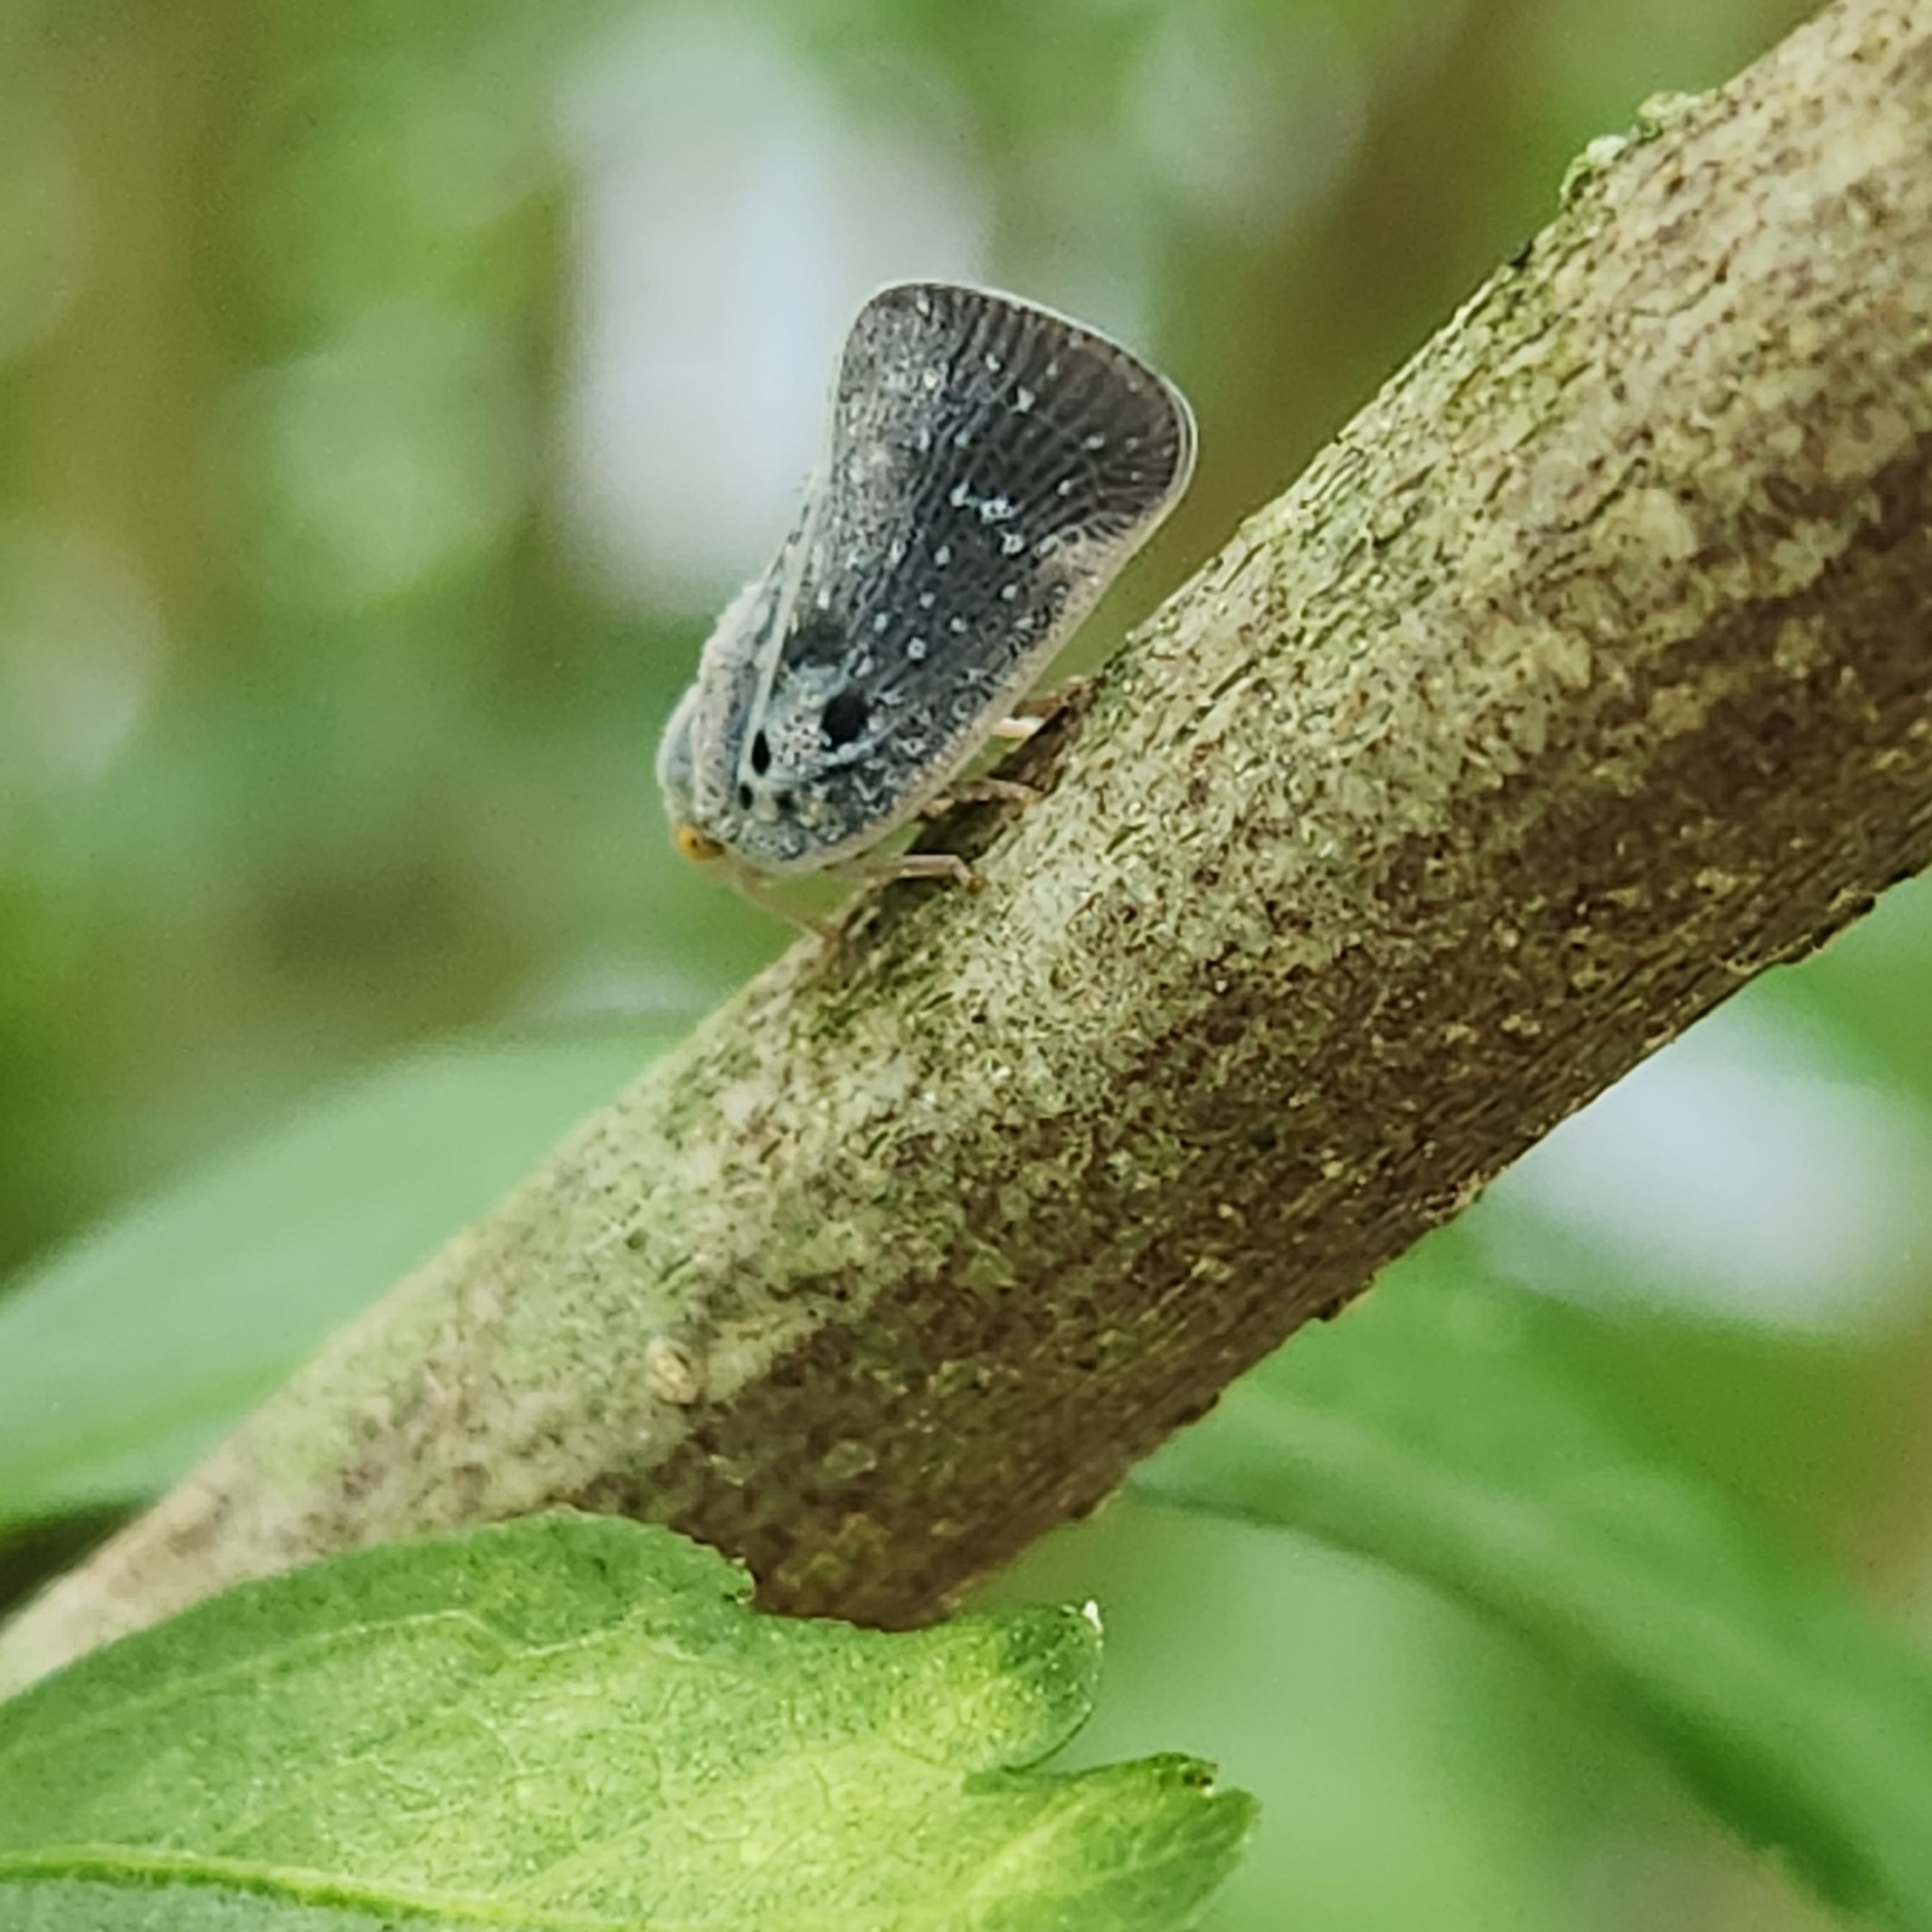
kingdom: Animalia
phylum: Arthropoda
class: Insecta
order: Hemiptera
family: Flatidae
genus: Metcalfa
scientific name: Metcalfa pruinosa
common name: Citrus flatid planthopper
